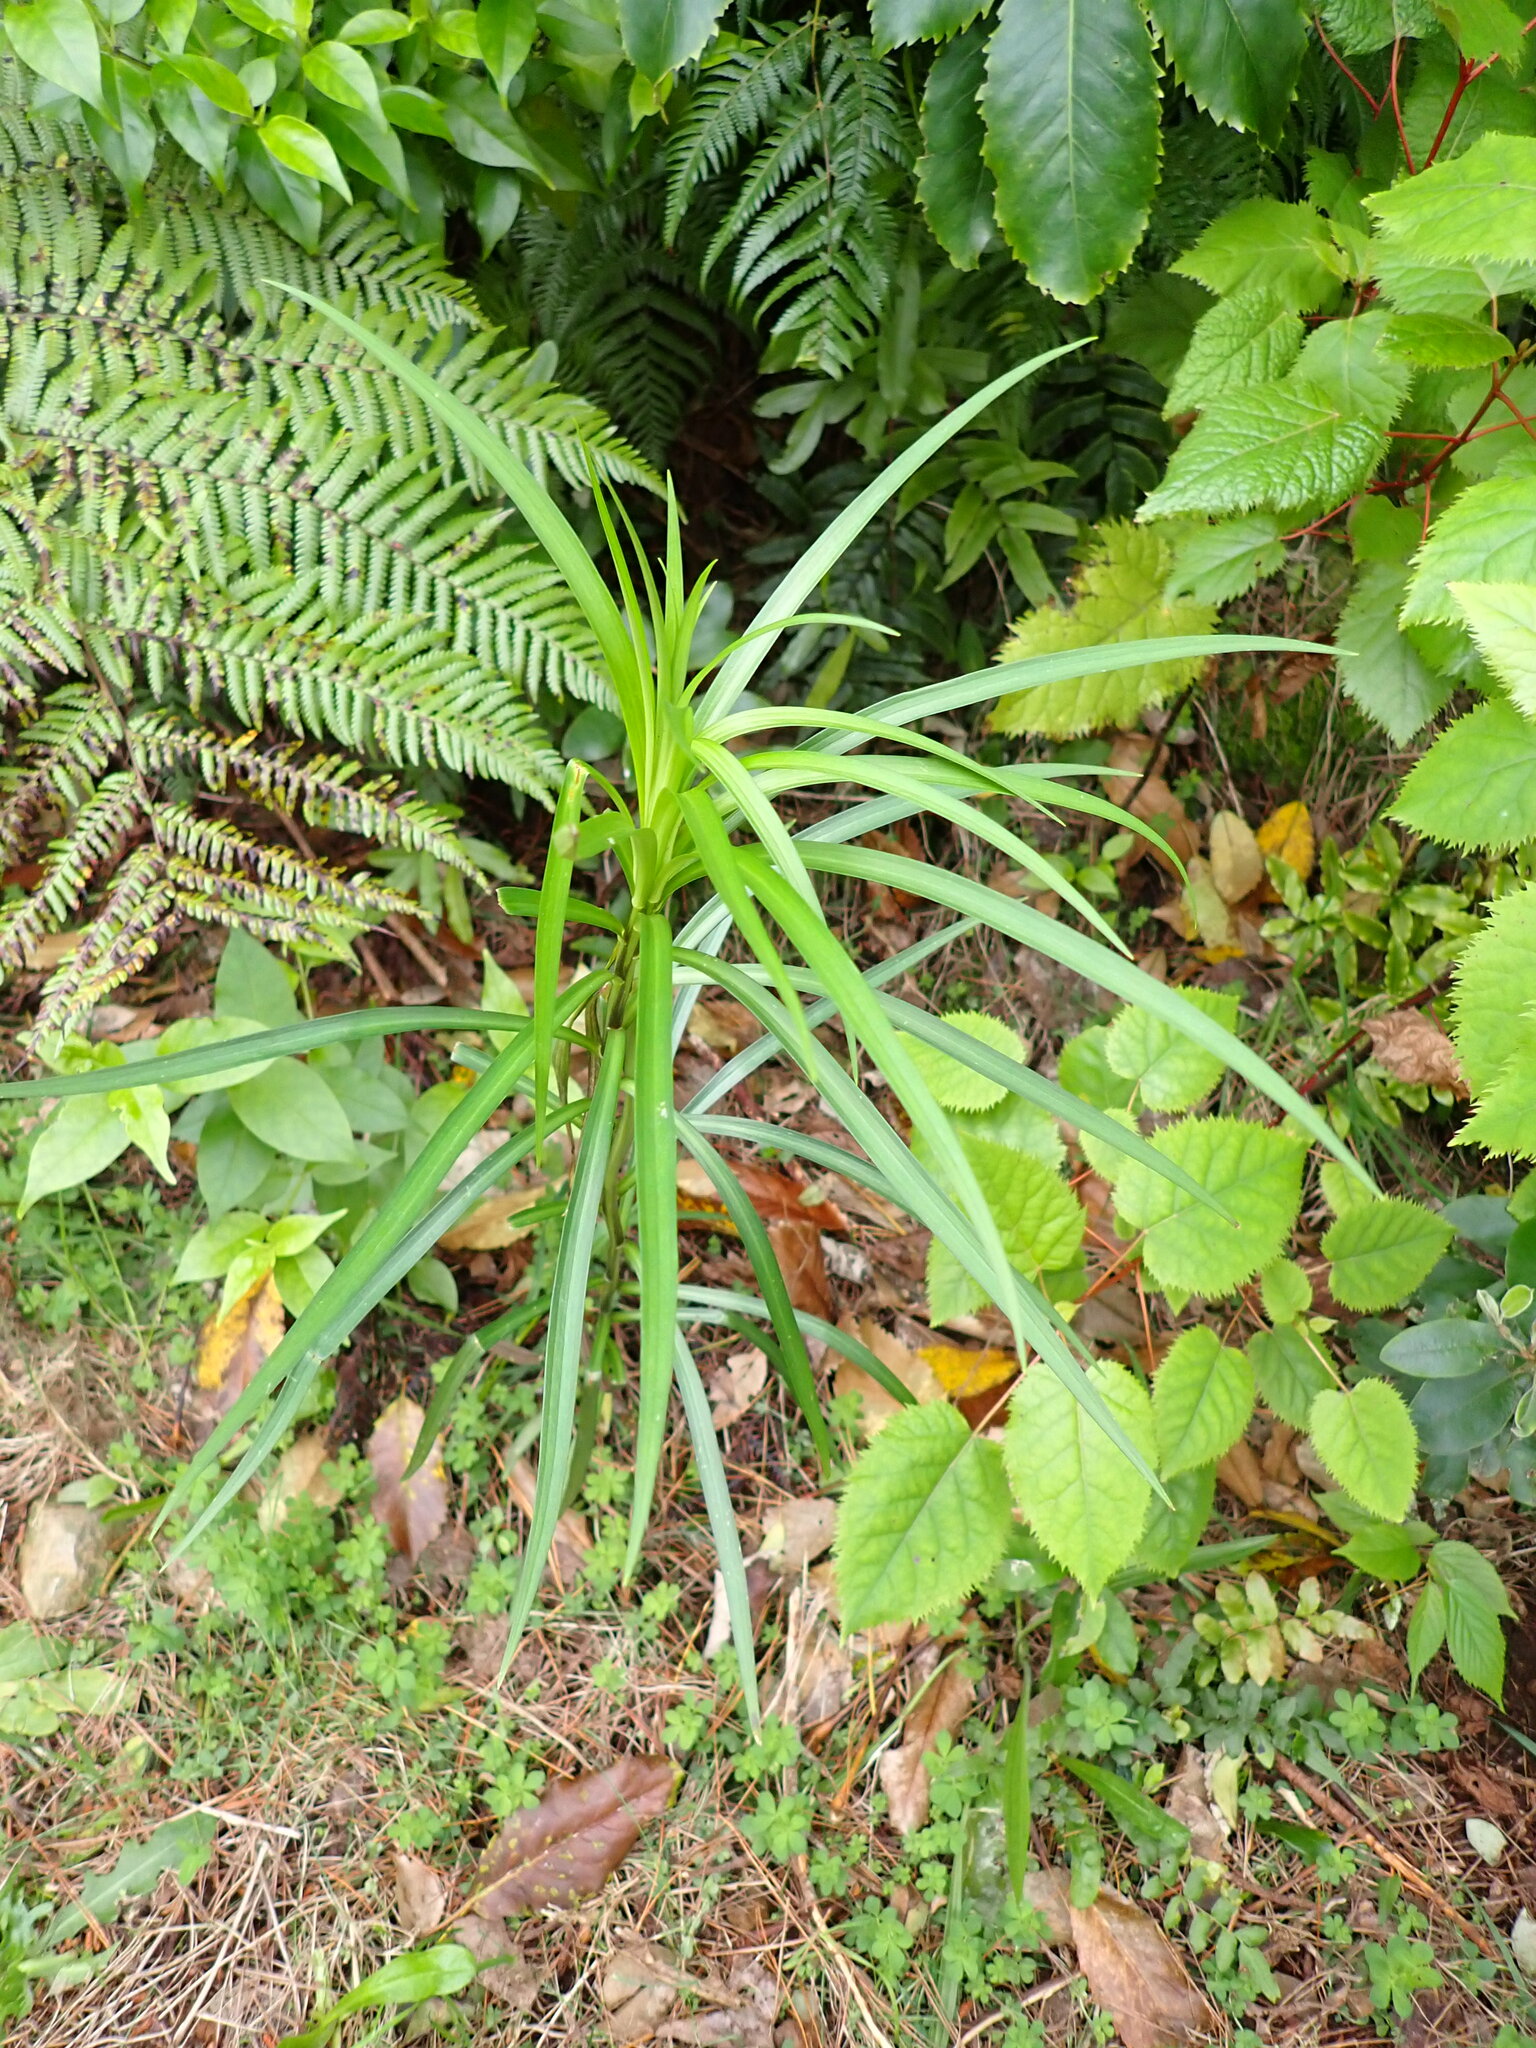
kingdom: Plantae
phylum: Tracheophyta
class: Liliopsida
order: Liliales
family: Liliaceae
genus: Lilium
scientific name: Lilium formosanum
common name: Formosa lily
